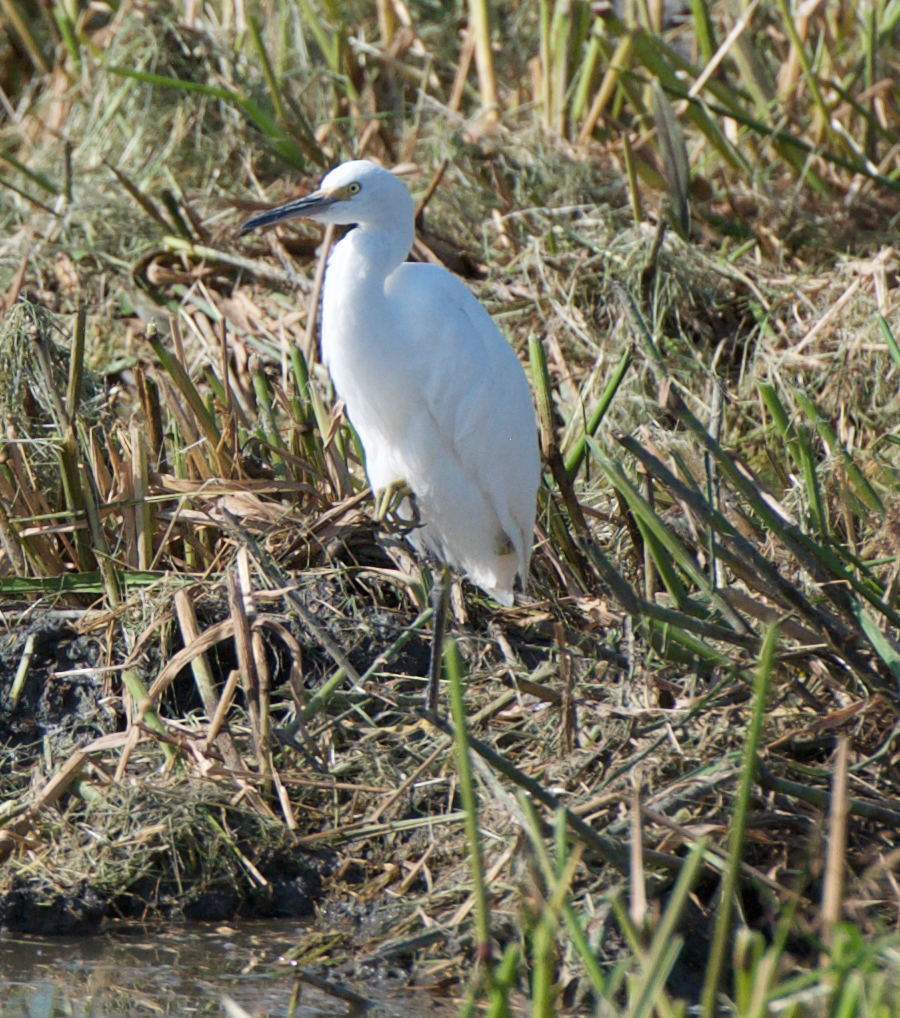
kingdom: Animalia
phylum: Chordata
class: Aves
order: Pelecaniformes
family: Ardeidae
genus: Egretta
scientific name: Egretta thula
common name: Snowy egret
